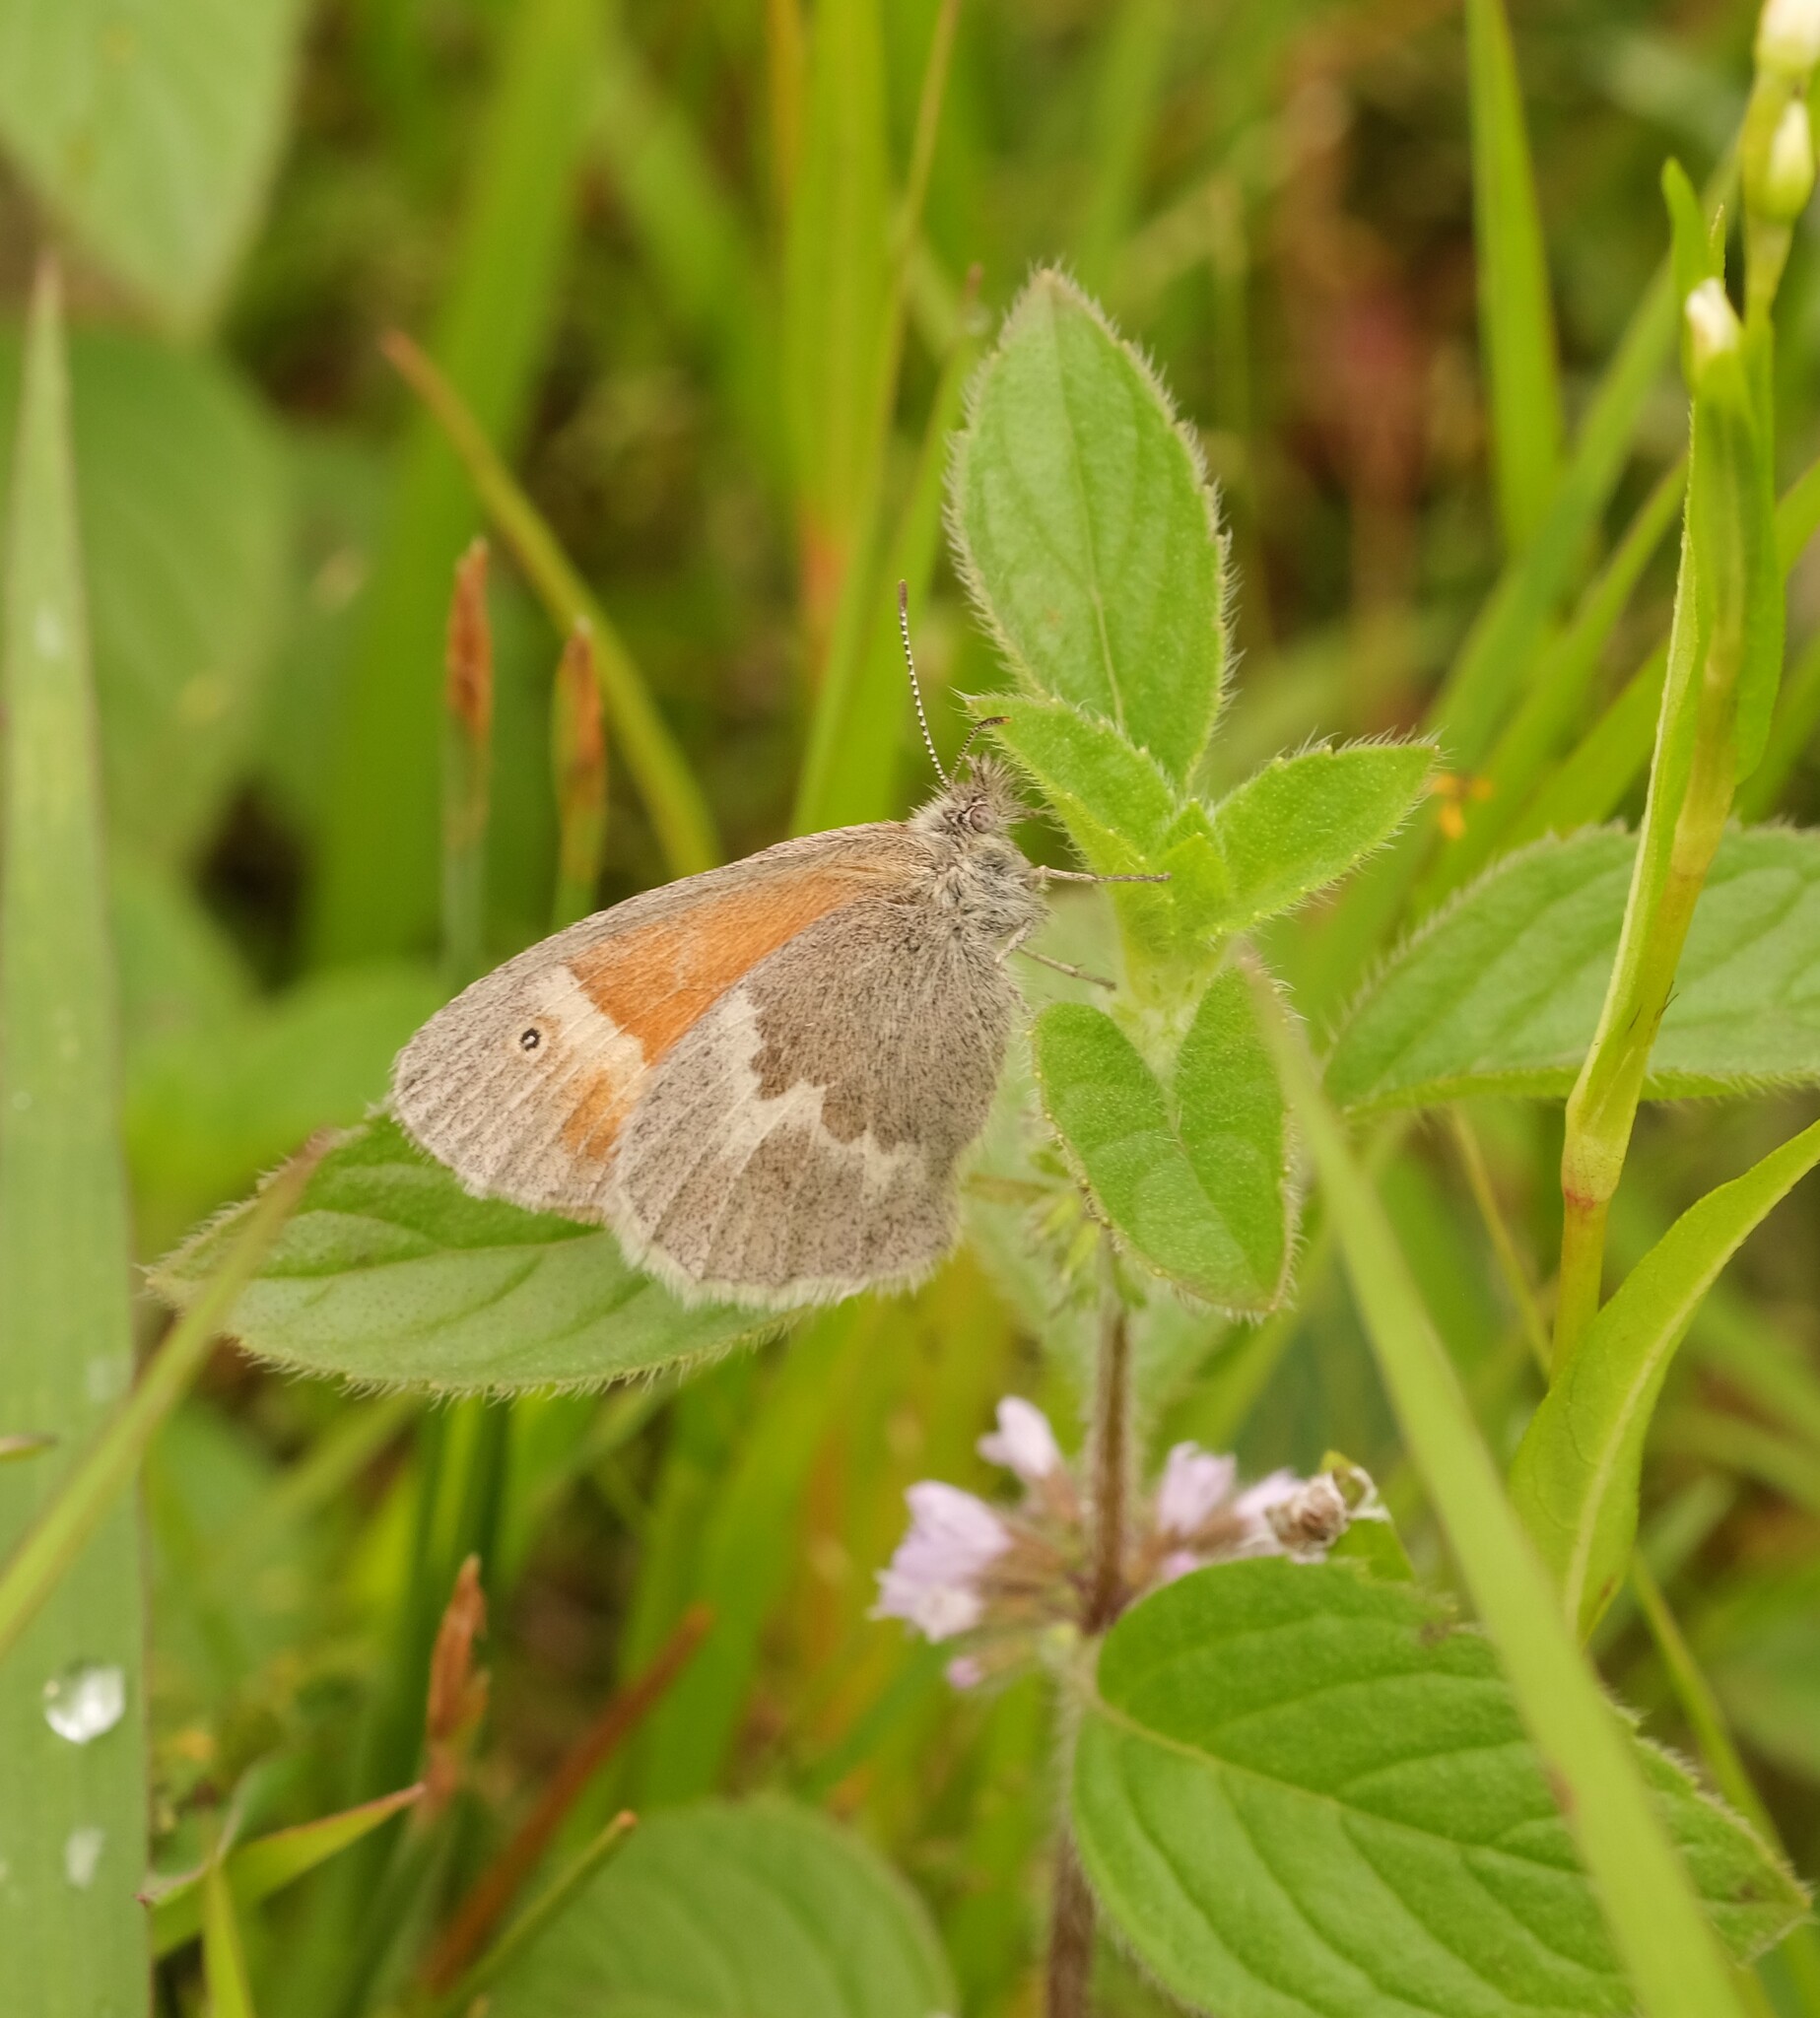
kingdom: Animalia
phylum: Arthropoda
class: Insecta
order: Lepidoptera
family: Nymphalidae
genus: Coenonympha
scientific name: Coenonympha california
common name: Common ringlet
